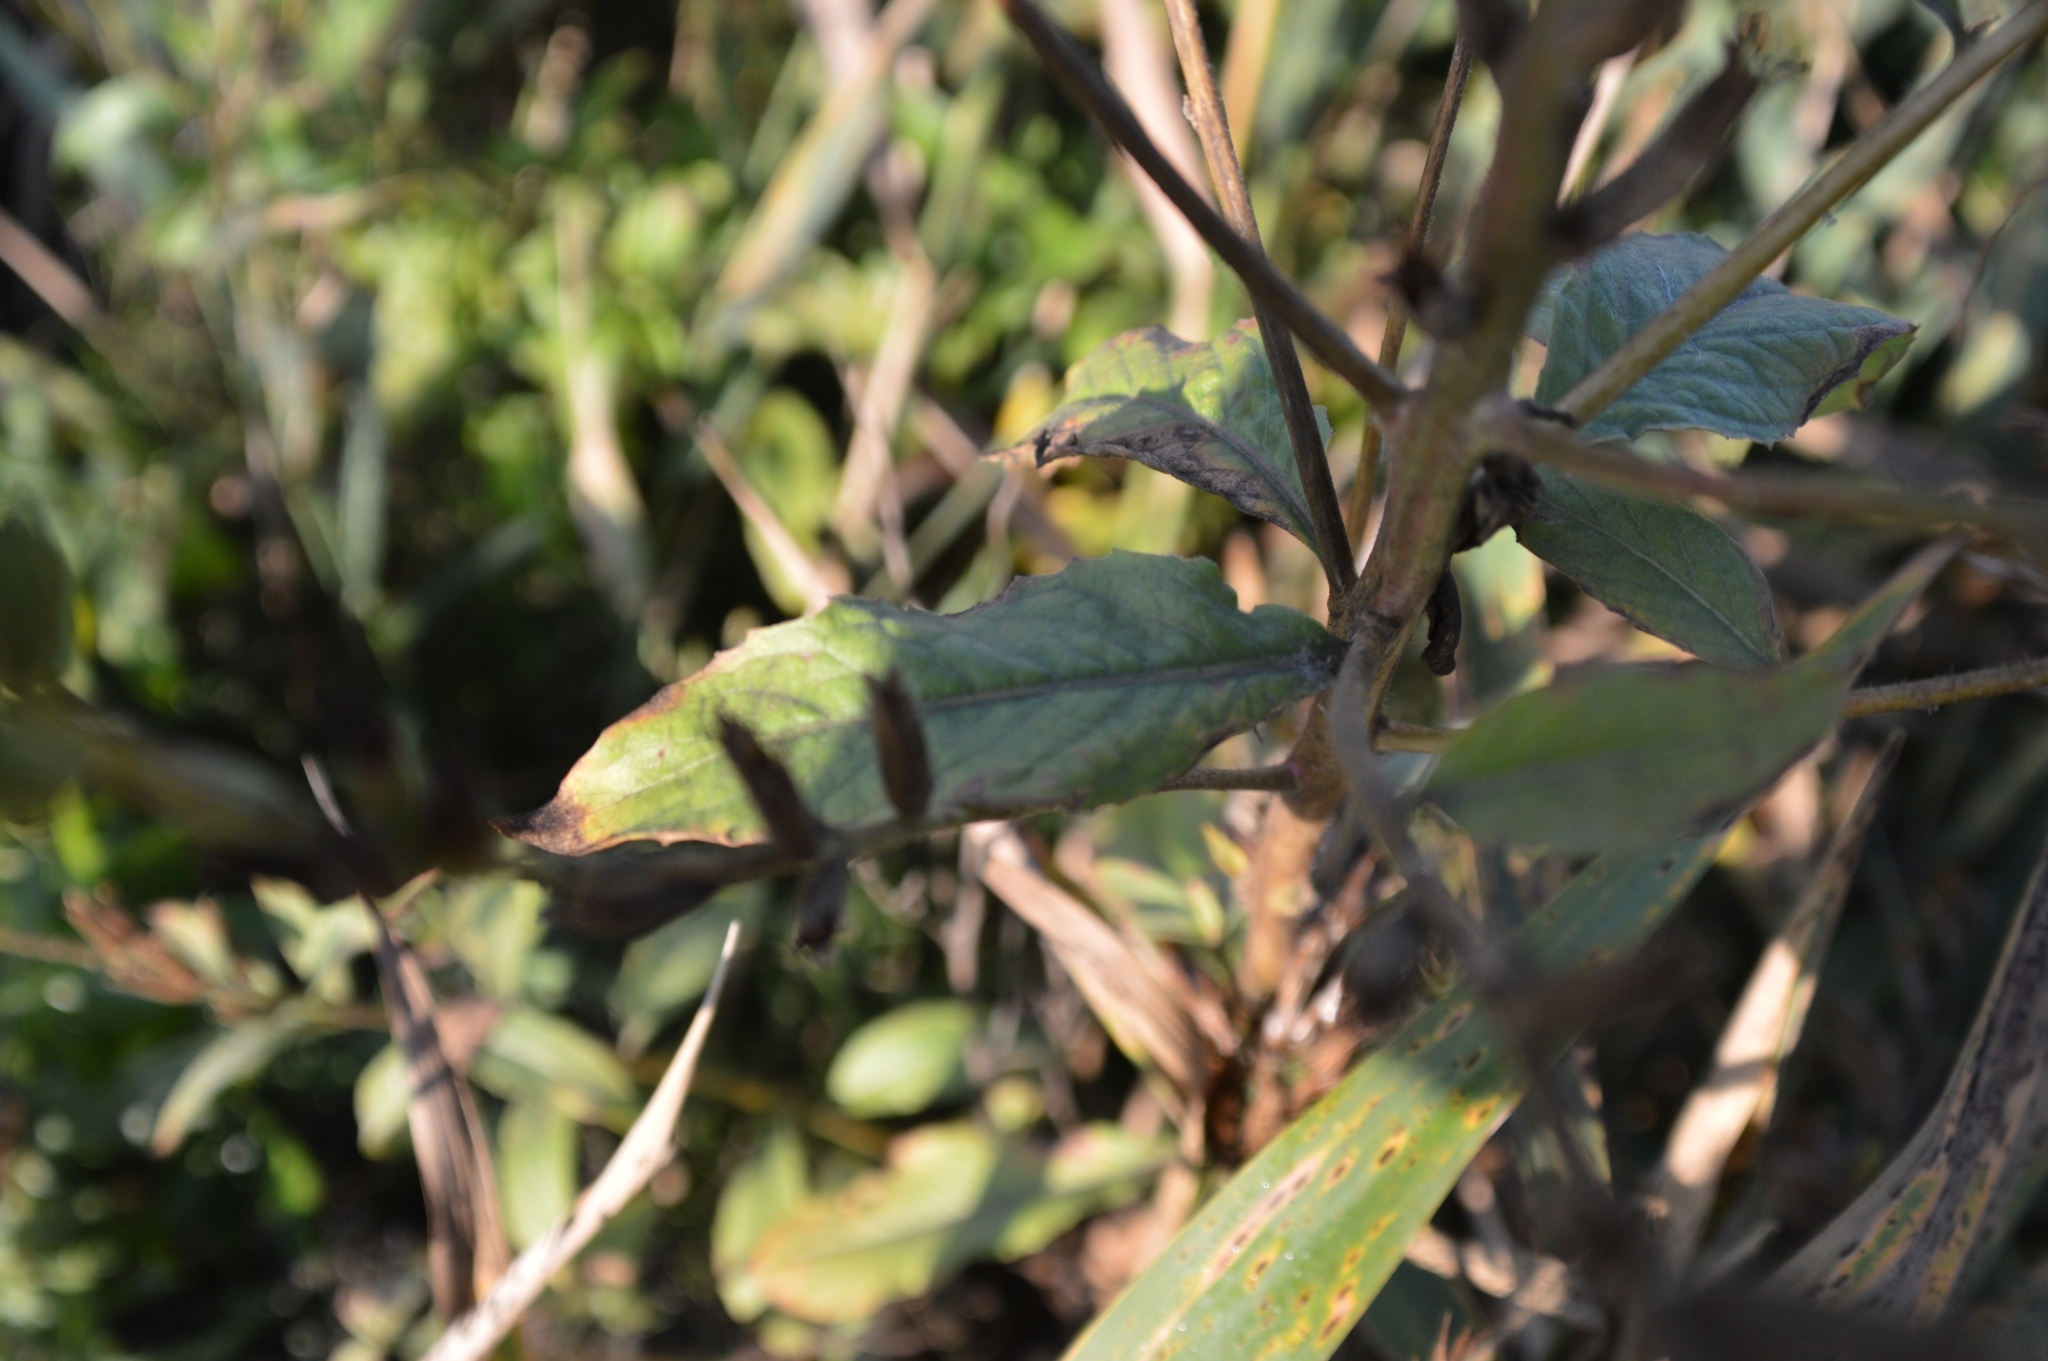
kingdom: Plantae
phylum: Tracheophyta
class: Magnoliopsida
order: Myrtales
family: Onagraceae
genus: Oenothera
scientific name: Oenothera rubricaulis
